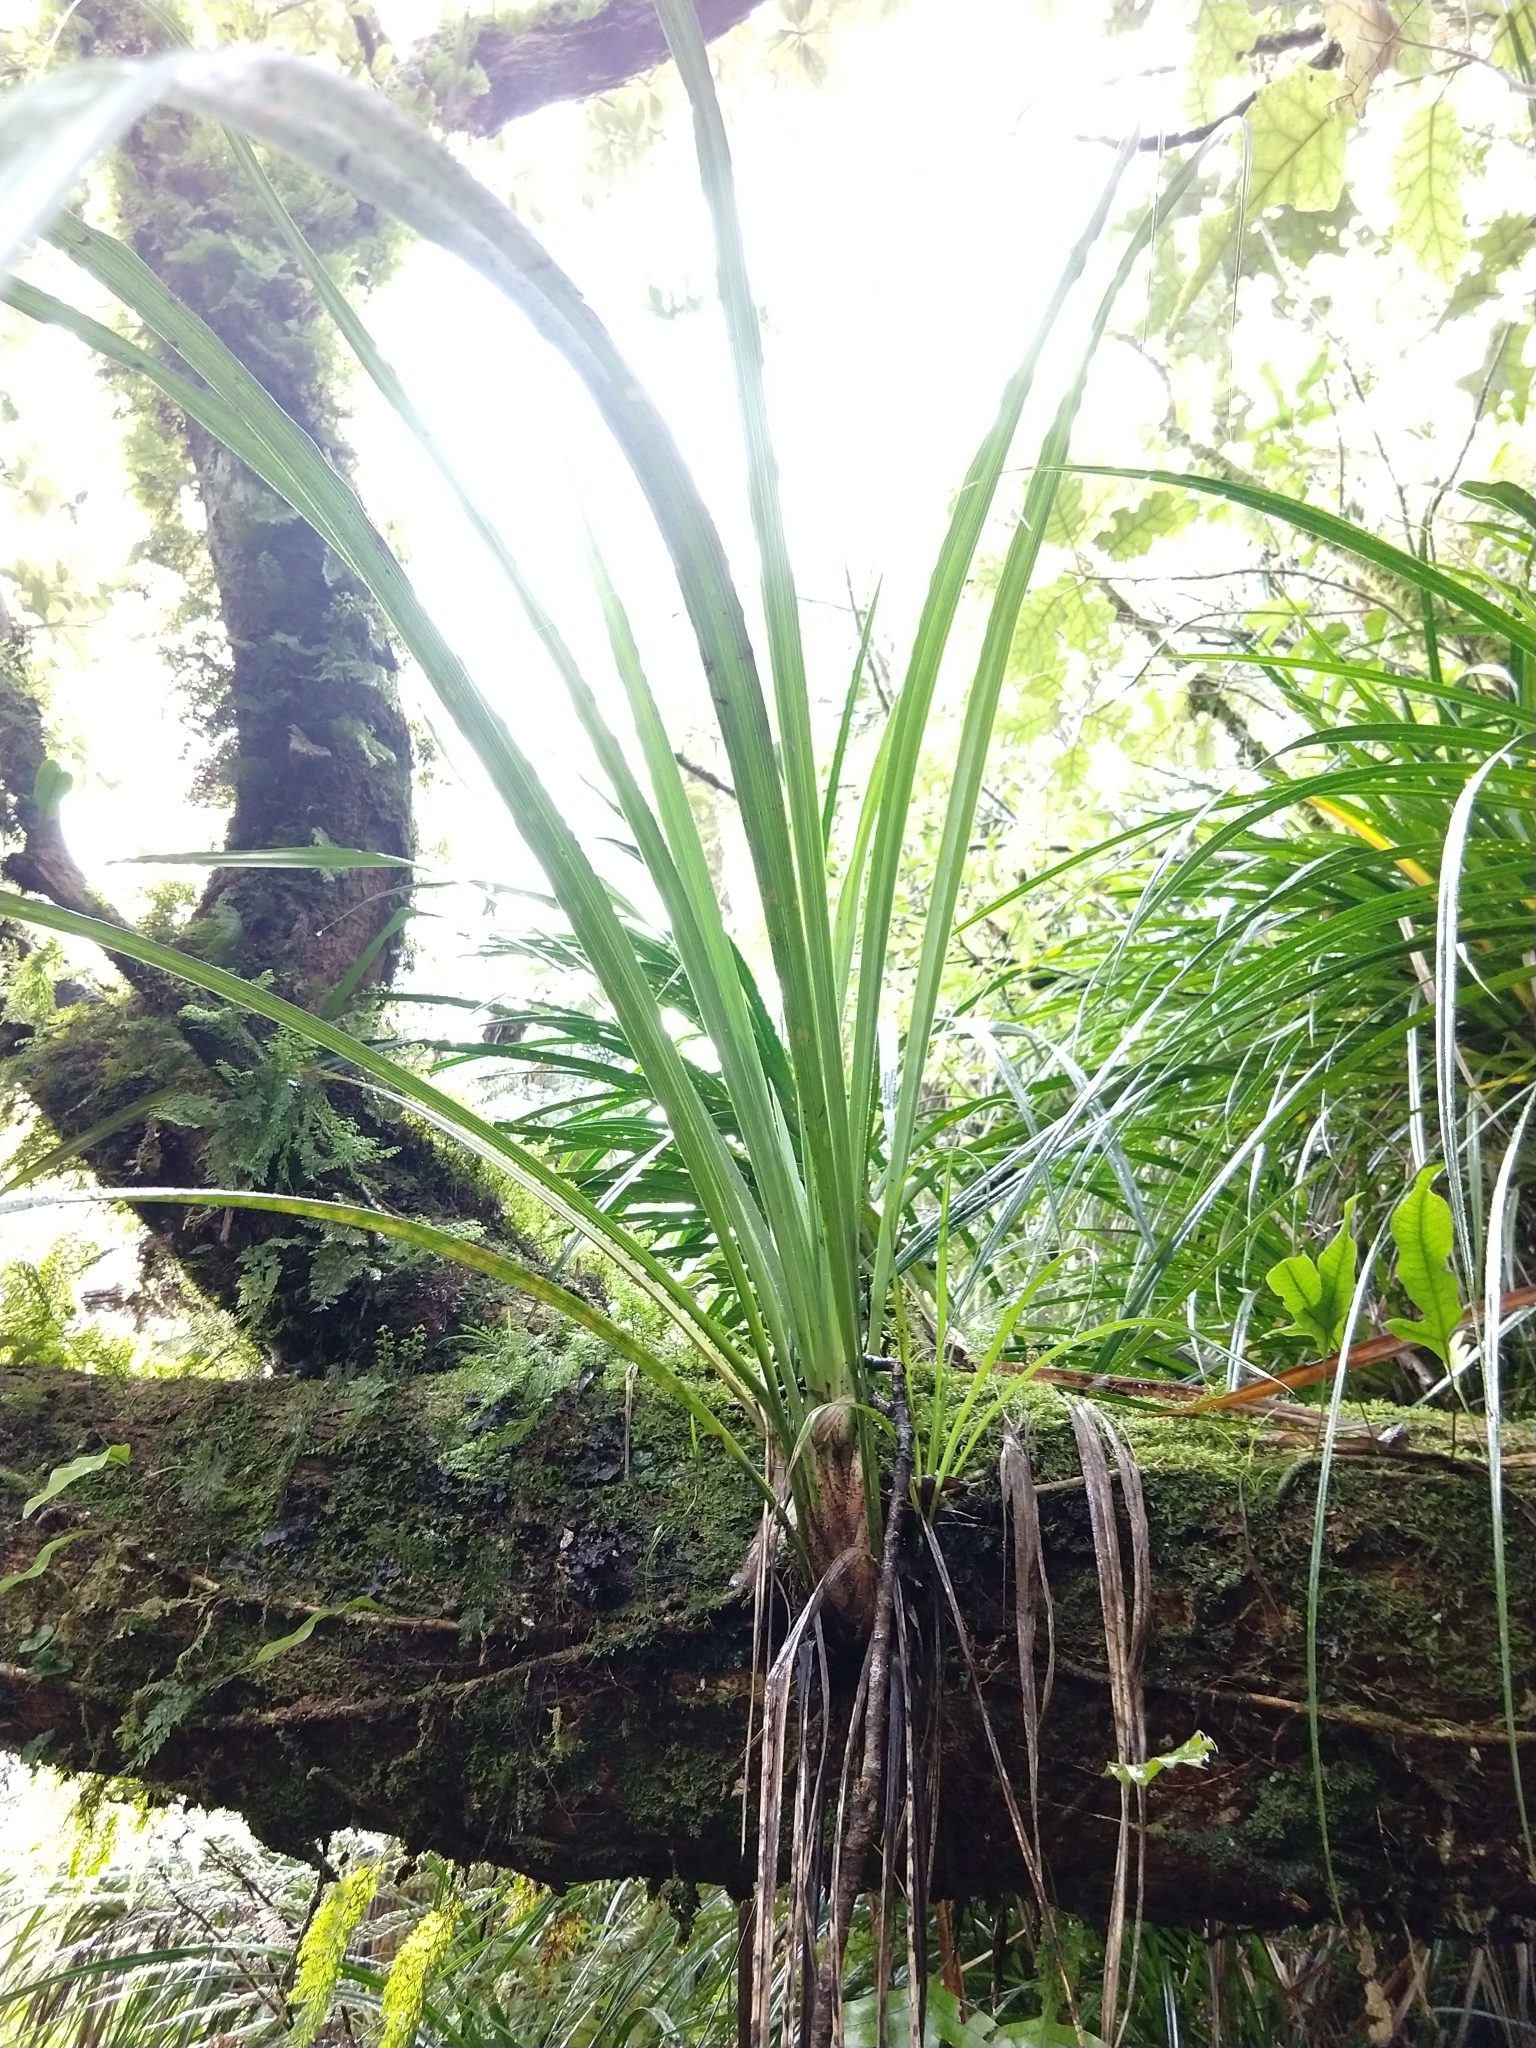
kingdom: Plantae
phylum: Tracheophyta
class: Liliopsida
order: Asparagales
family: Asteliaceae
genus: Astelia
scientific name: Astelia solandri
